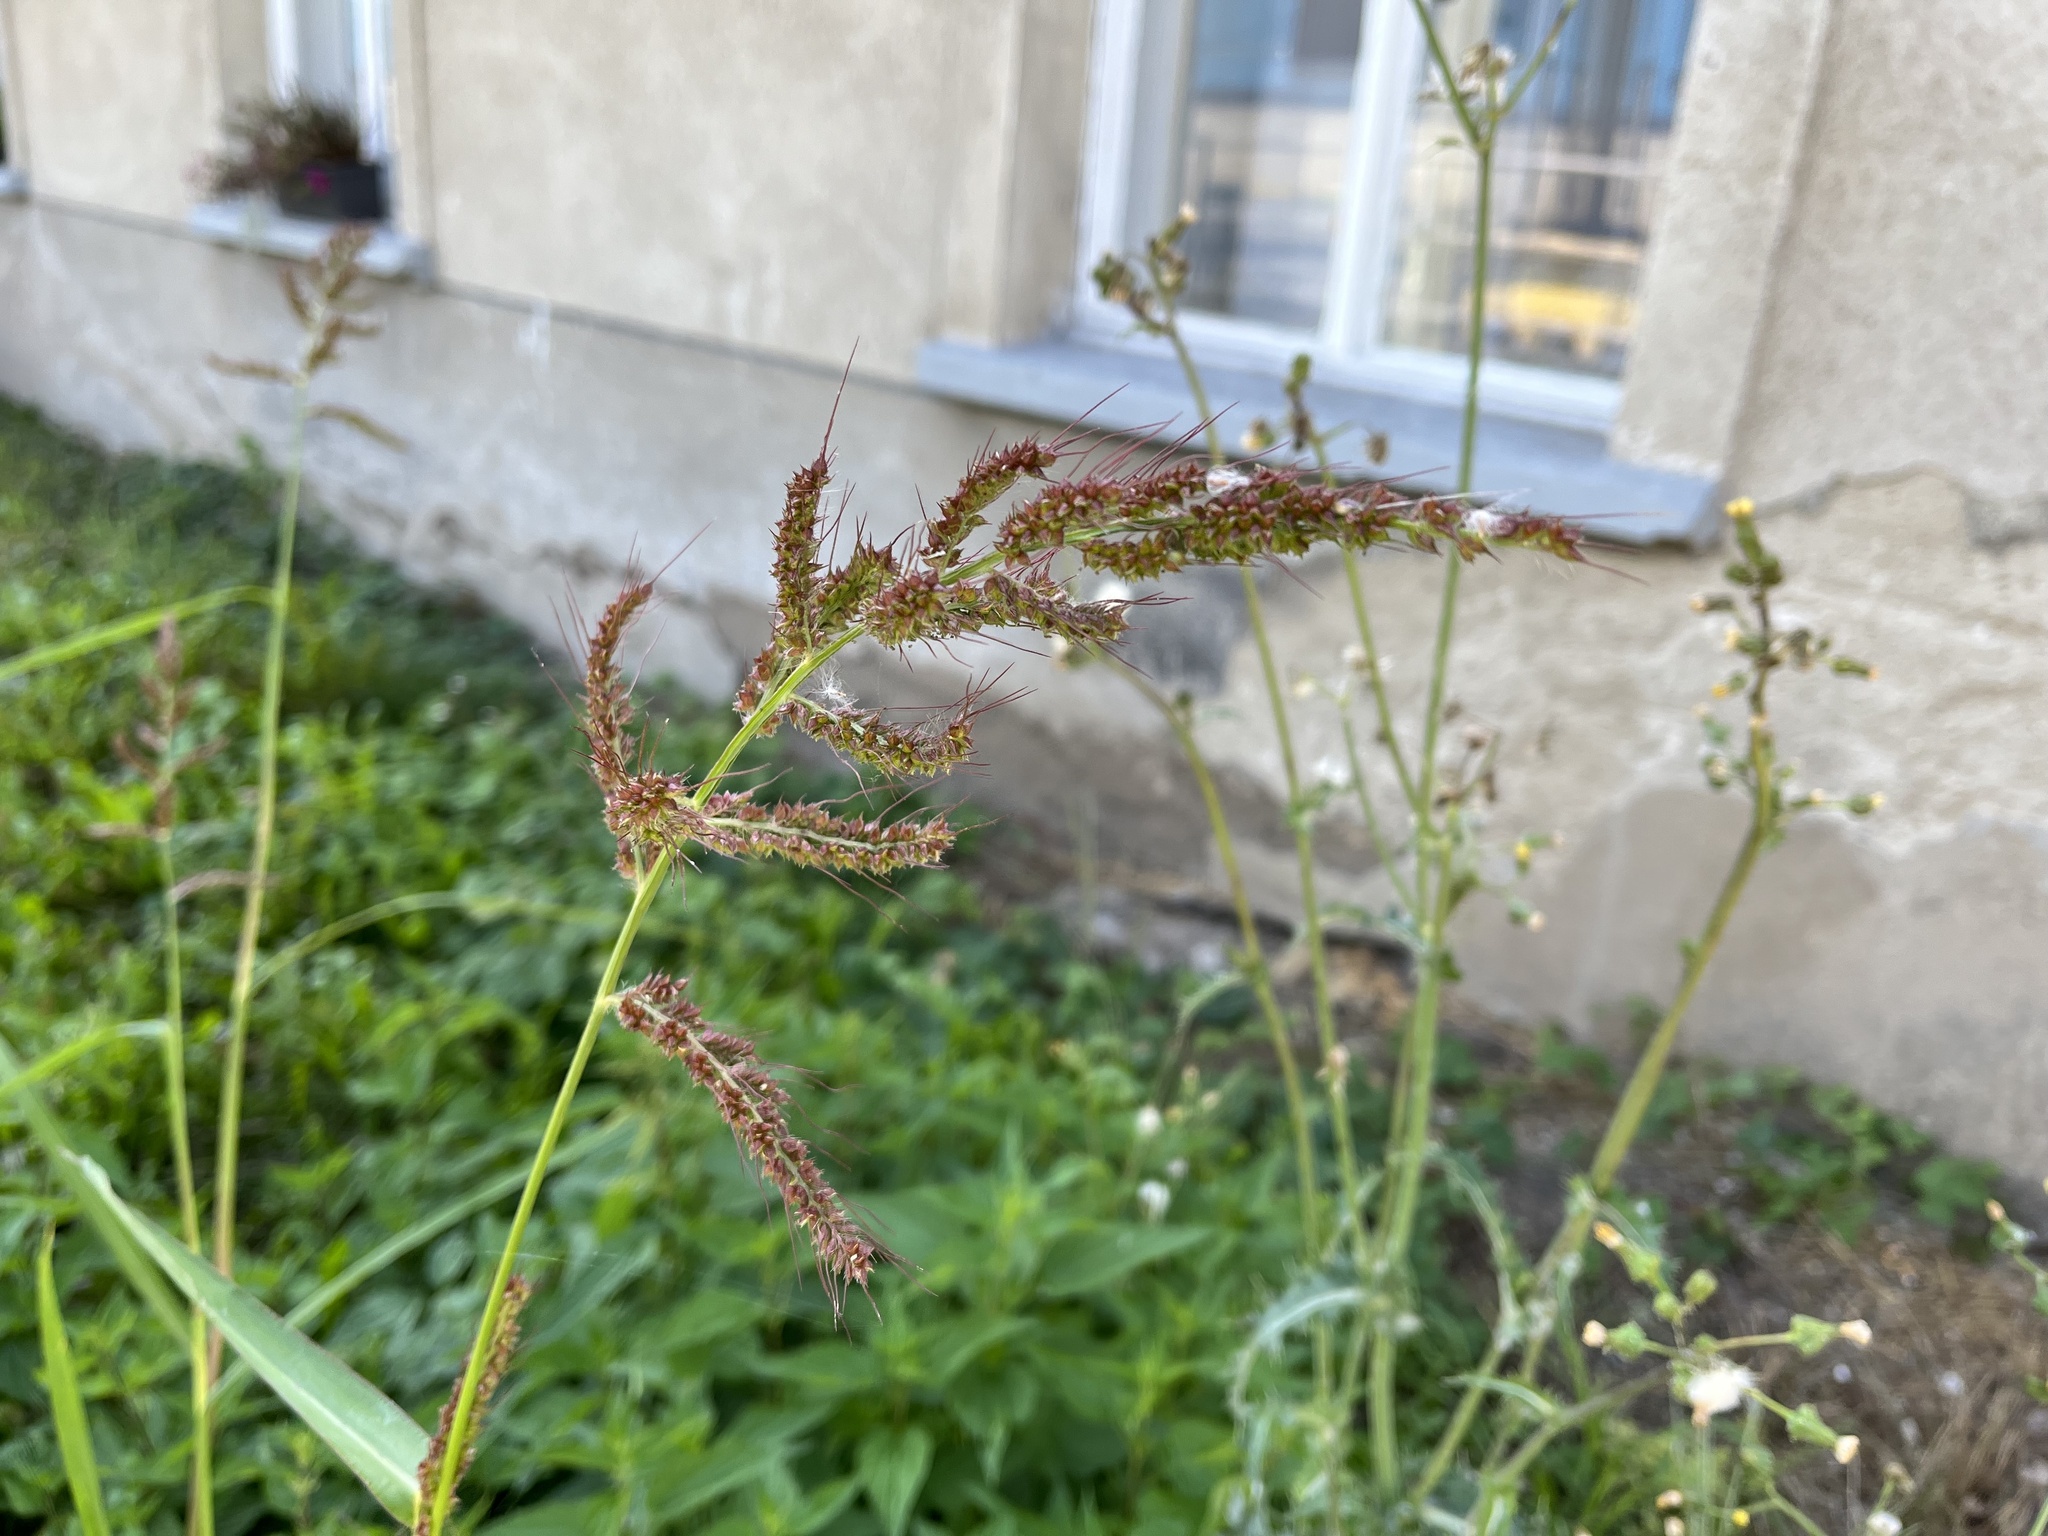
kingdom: Plantae
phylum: Tracheophyta
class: Liliopsida
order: Poales
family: Poaceae
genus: Echinochloa
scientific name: Echinochloa crus-galli
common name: Cockspur
